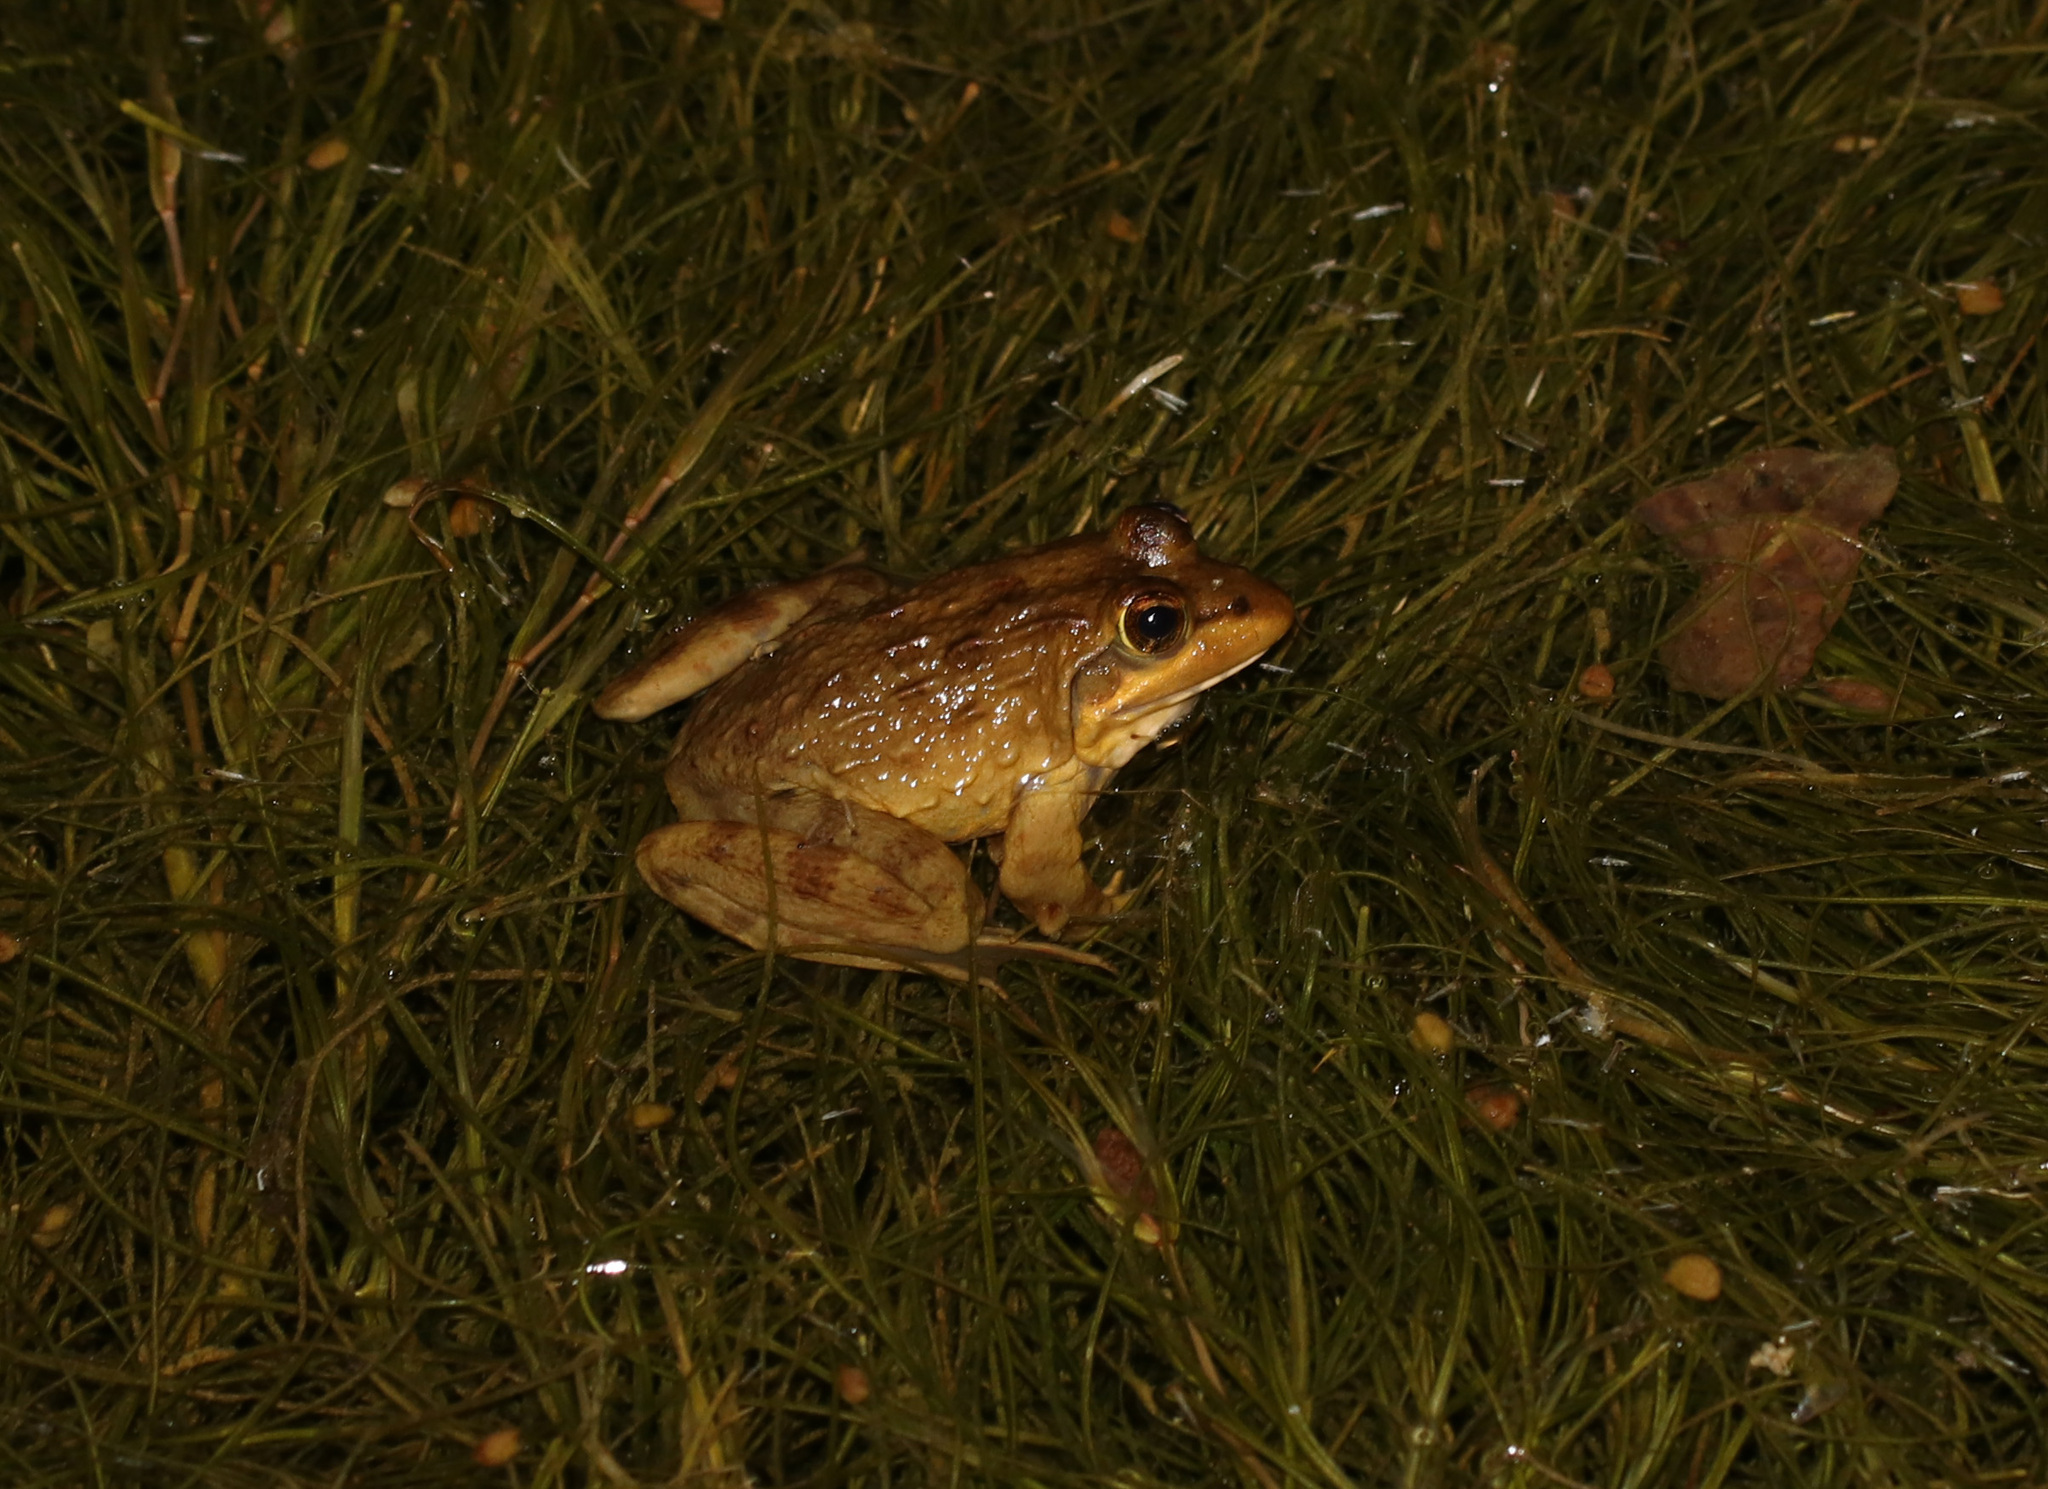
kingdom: Animalia
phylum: Chordata
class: Amphibia
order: Anura
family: Pyxicephalidae
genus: Amietia
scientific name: Amietia fuscigula
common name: Cape rana
